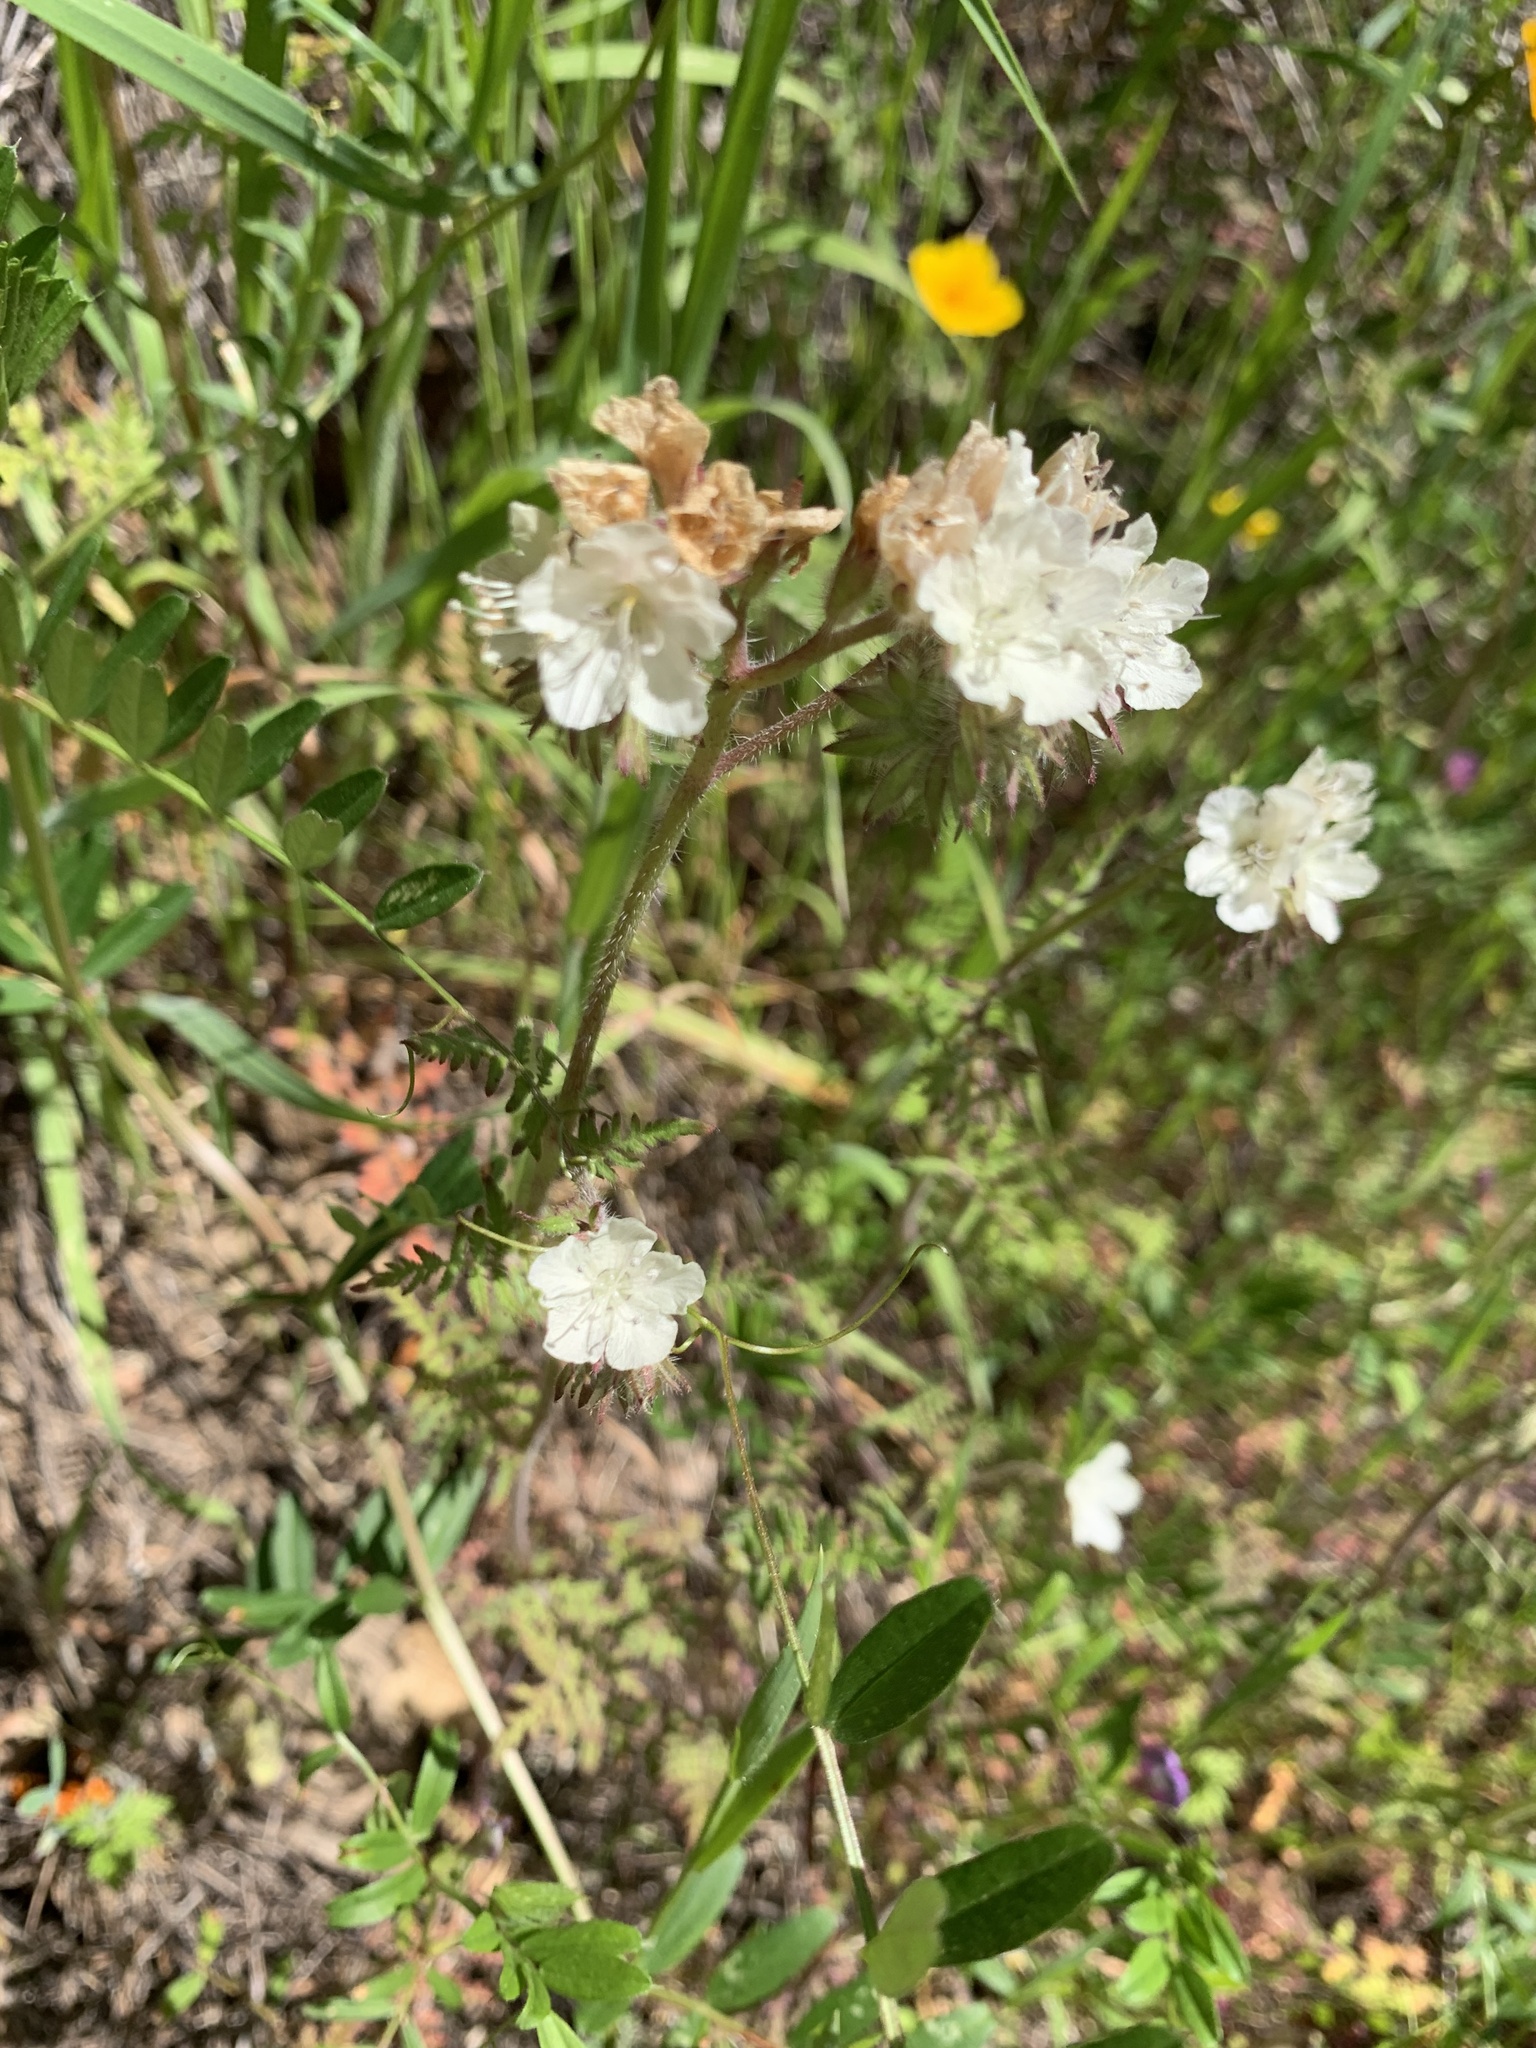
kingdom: Plantae
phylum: Tracheophyta
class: Magnoliopsida
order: Boraginales
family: Hydrophyllaceae
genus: Phacelia
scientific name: Phacelia distans
